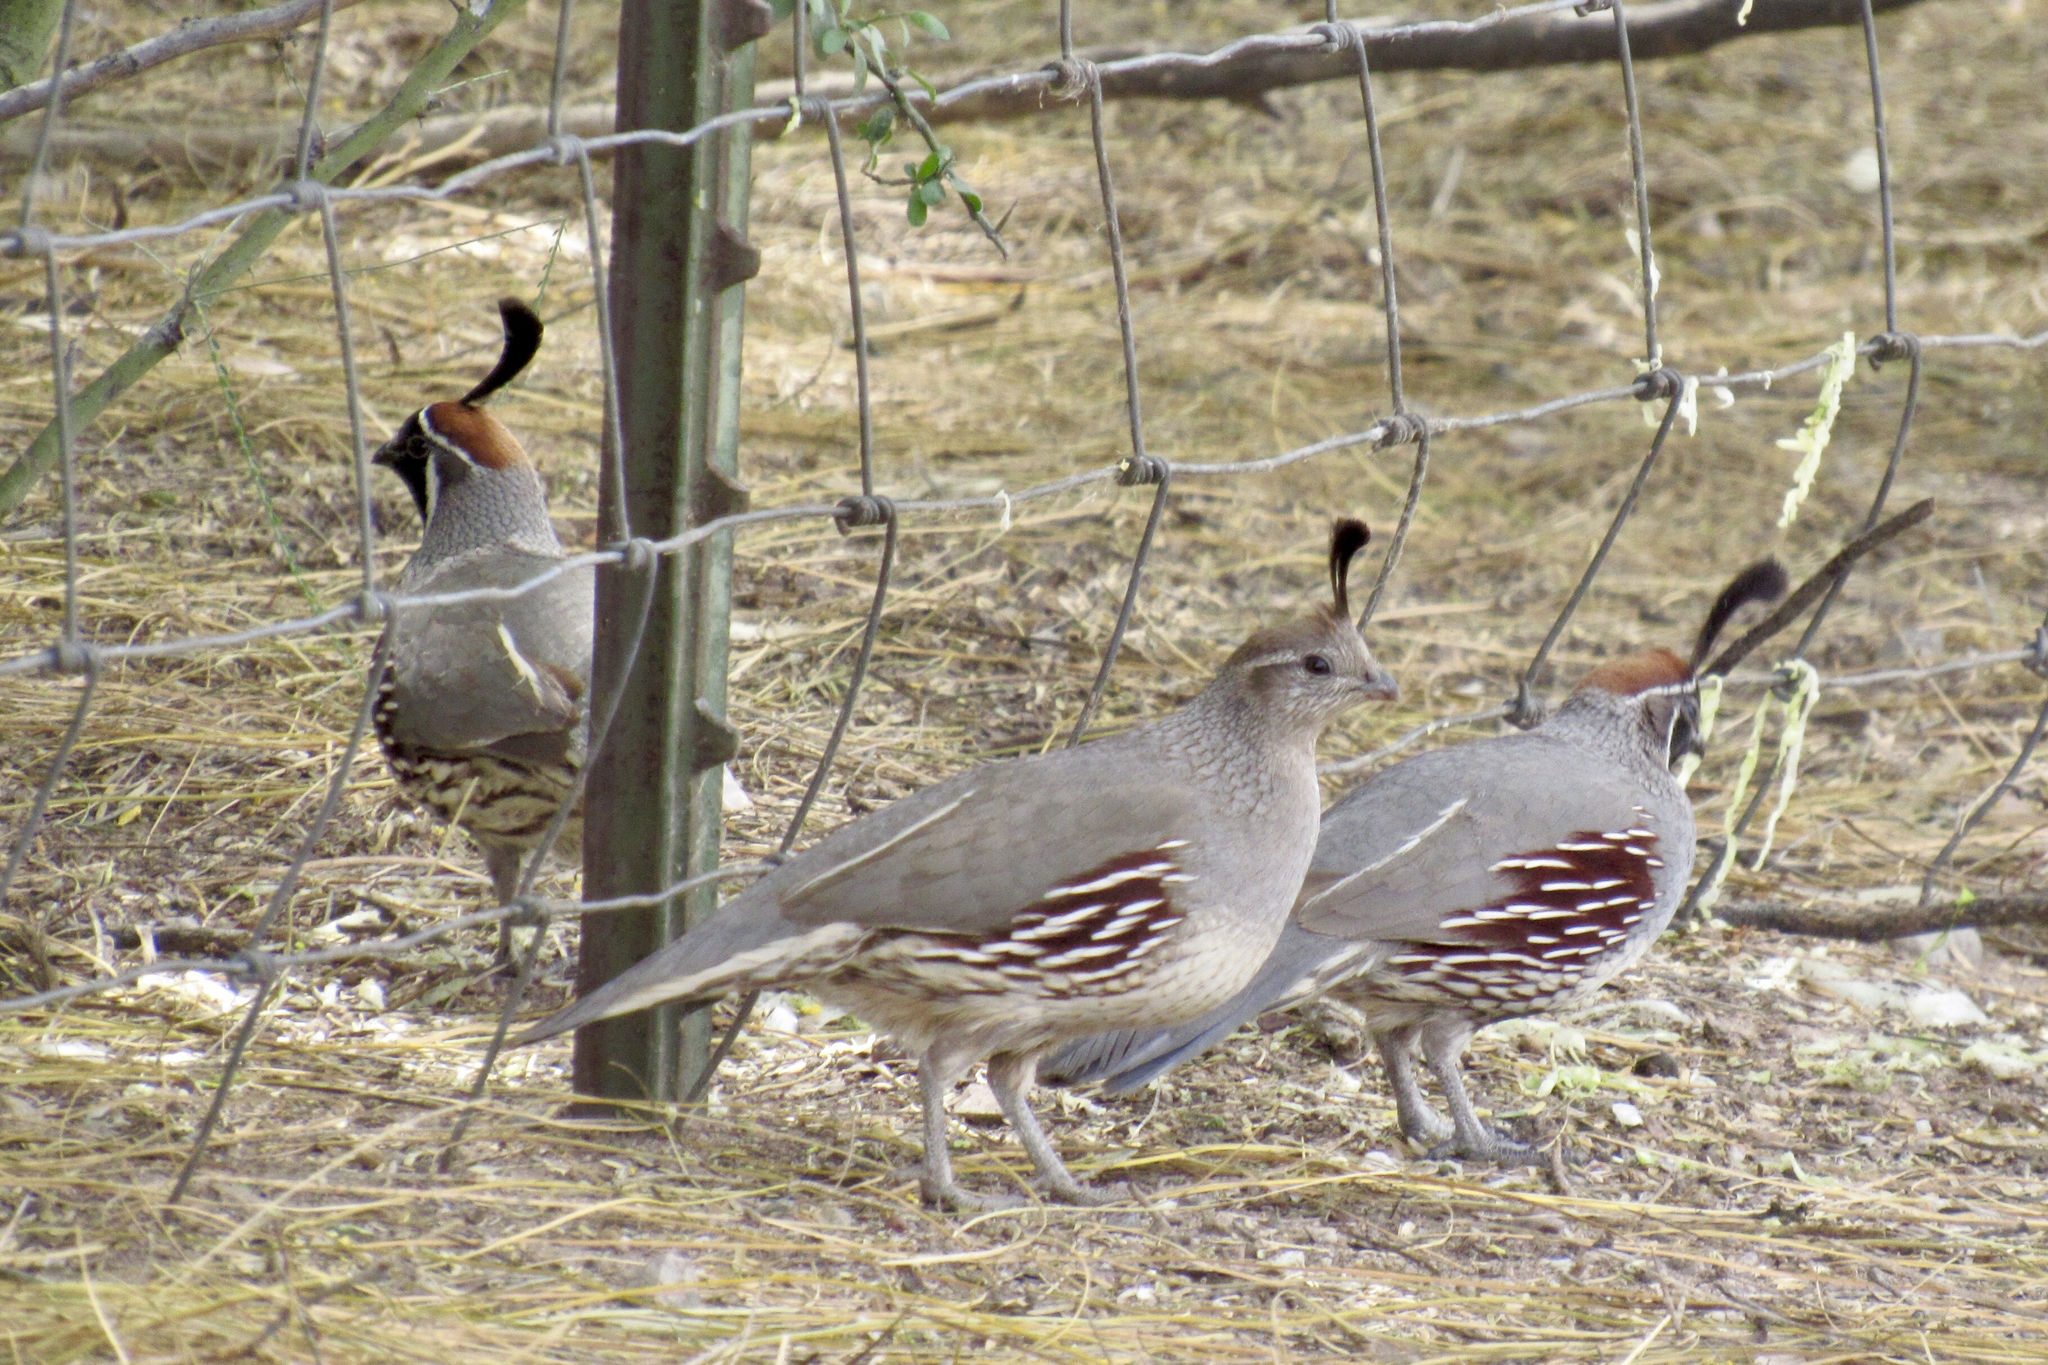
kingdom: Animalia
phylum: Chordata
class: Aves
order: Galliformes
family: Odontophoridae
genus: Callipepla
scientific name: Callipepla gambelii
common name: Gambel's quail
